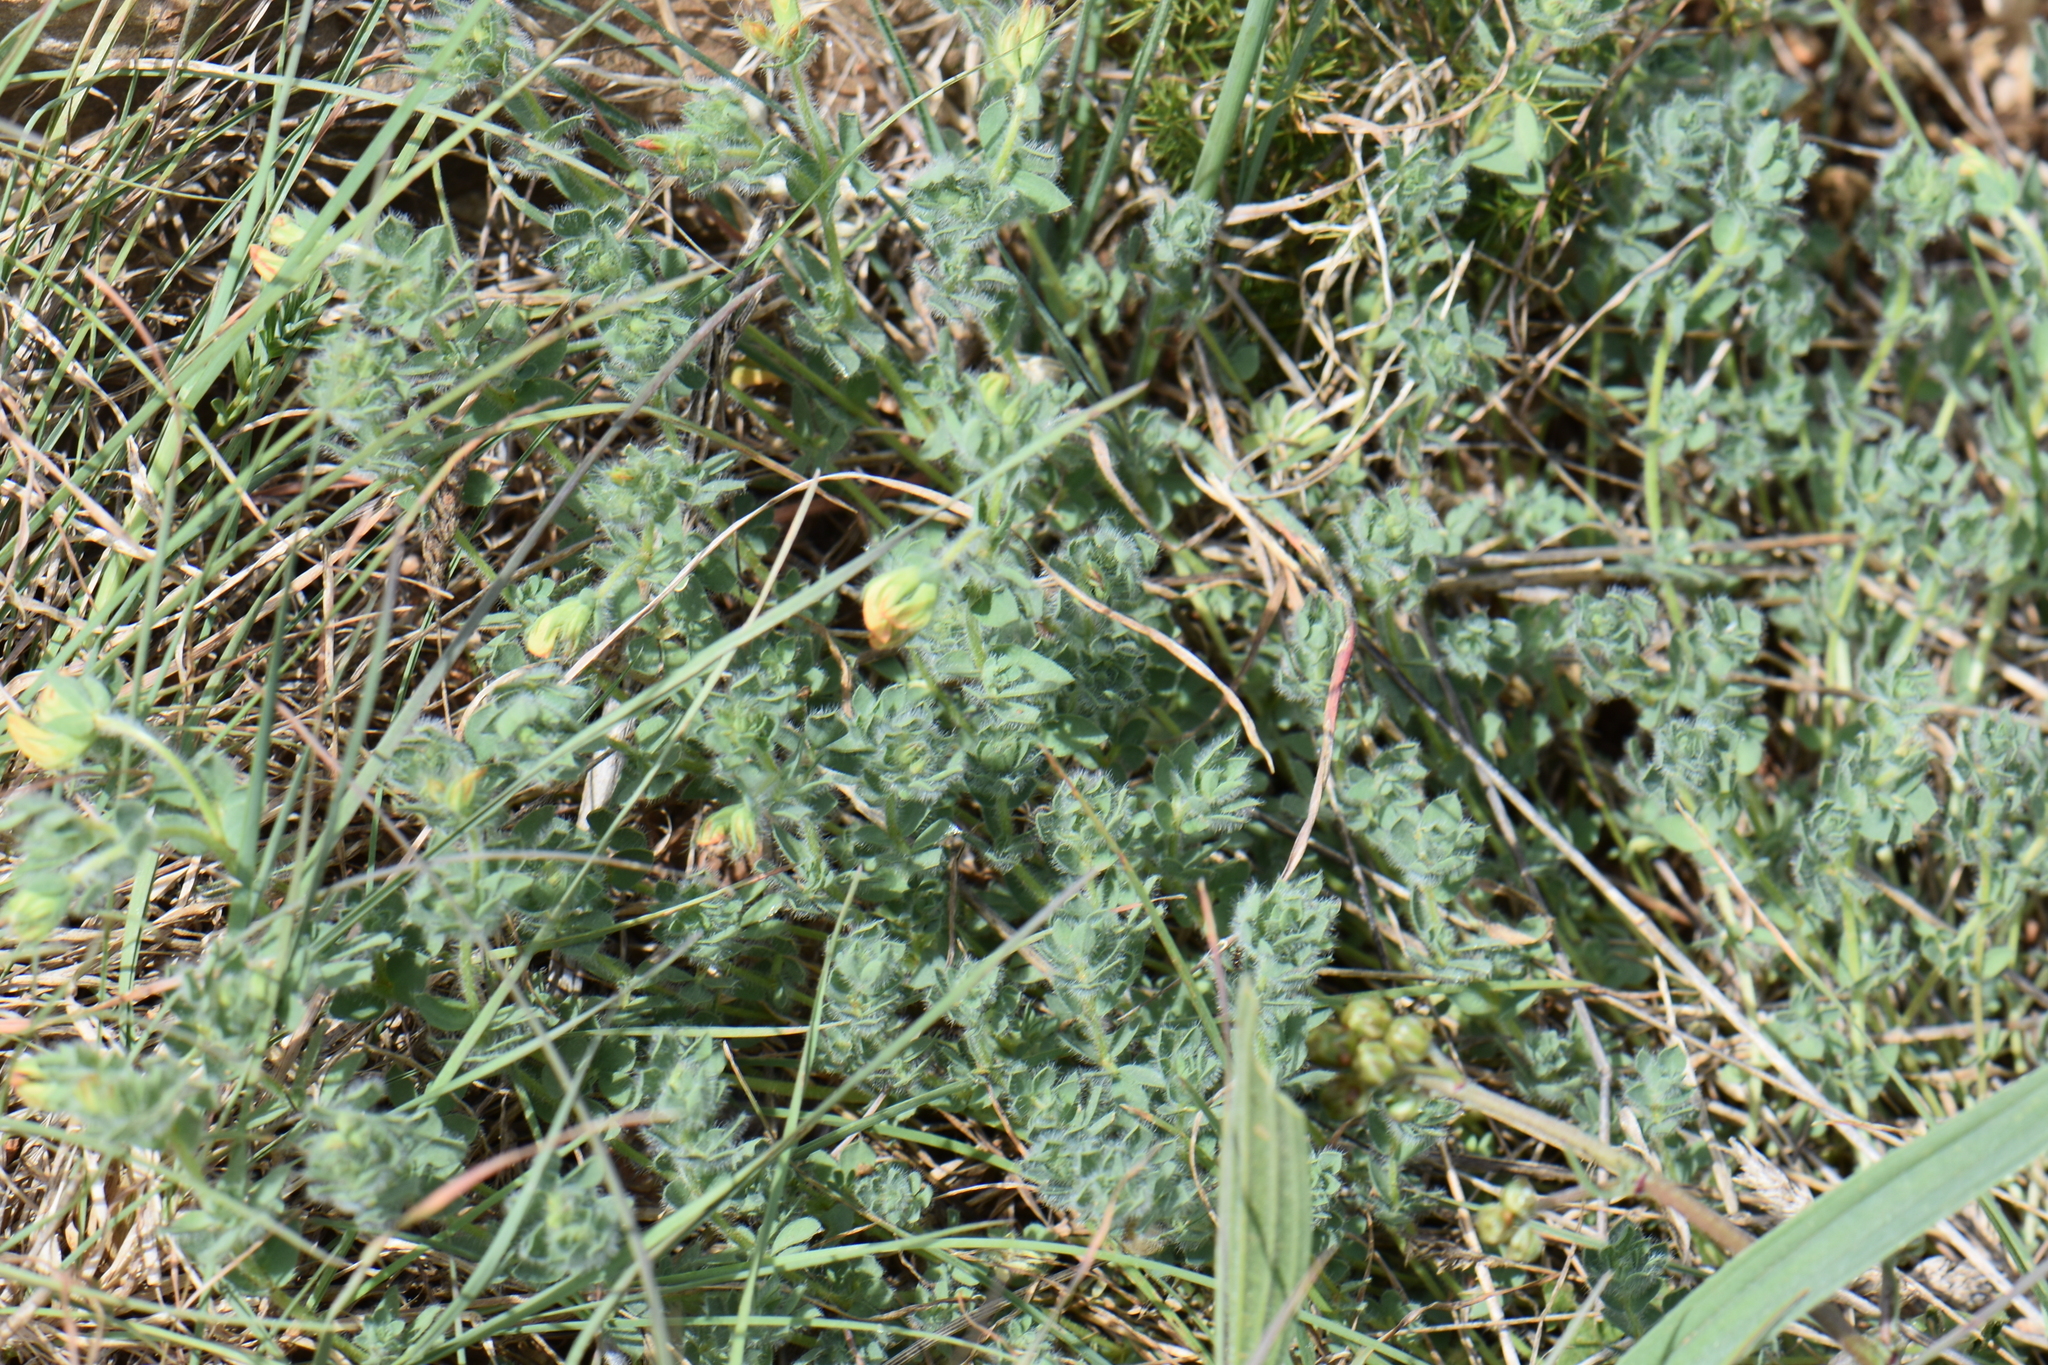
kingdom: Plantae
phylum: Tracheophyta
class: Magnoliopsida
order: Fabales
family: Fabaceae
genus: Lotus
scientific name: Lotus delortii
